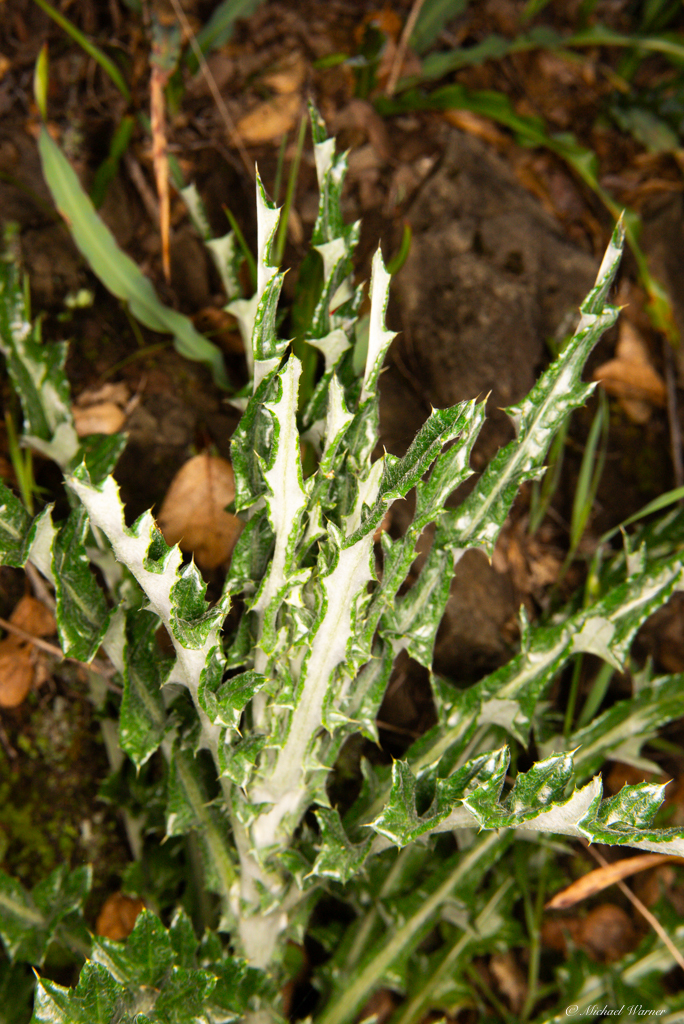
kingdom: Plantae
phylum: Tracheophyta
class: Magnoliopsida
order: Asterales
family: Asteraceae
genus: Cirsium
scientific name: Cirsium occidentale
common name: Western thistle
